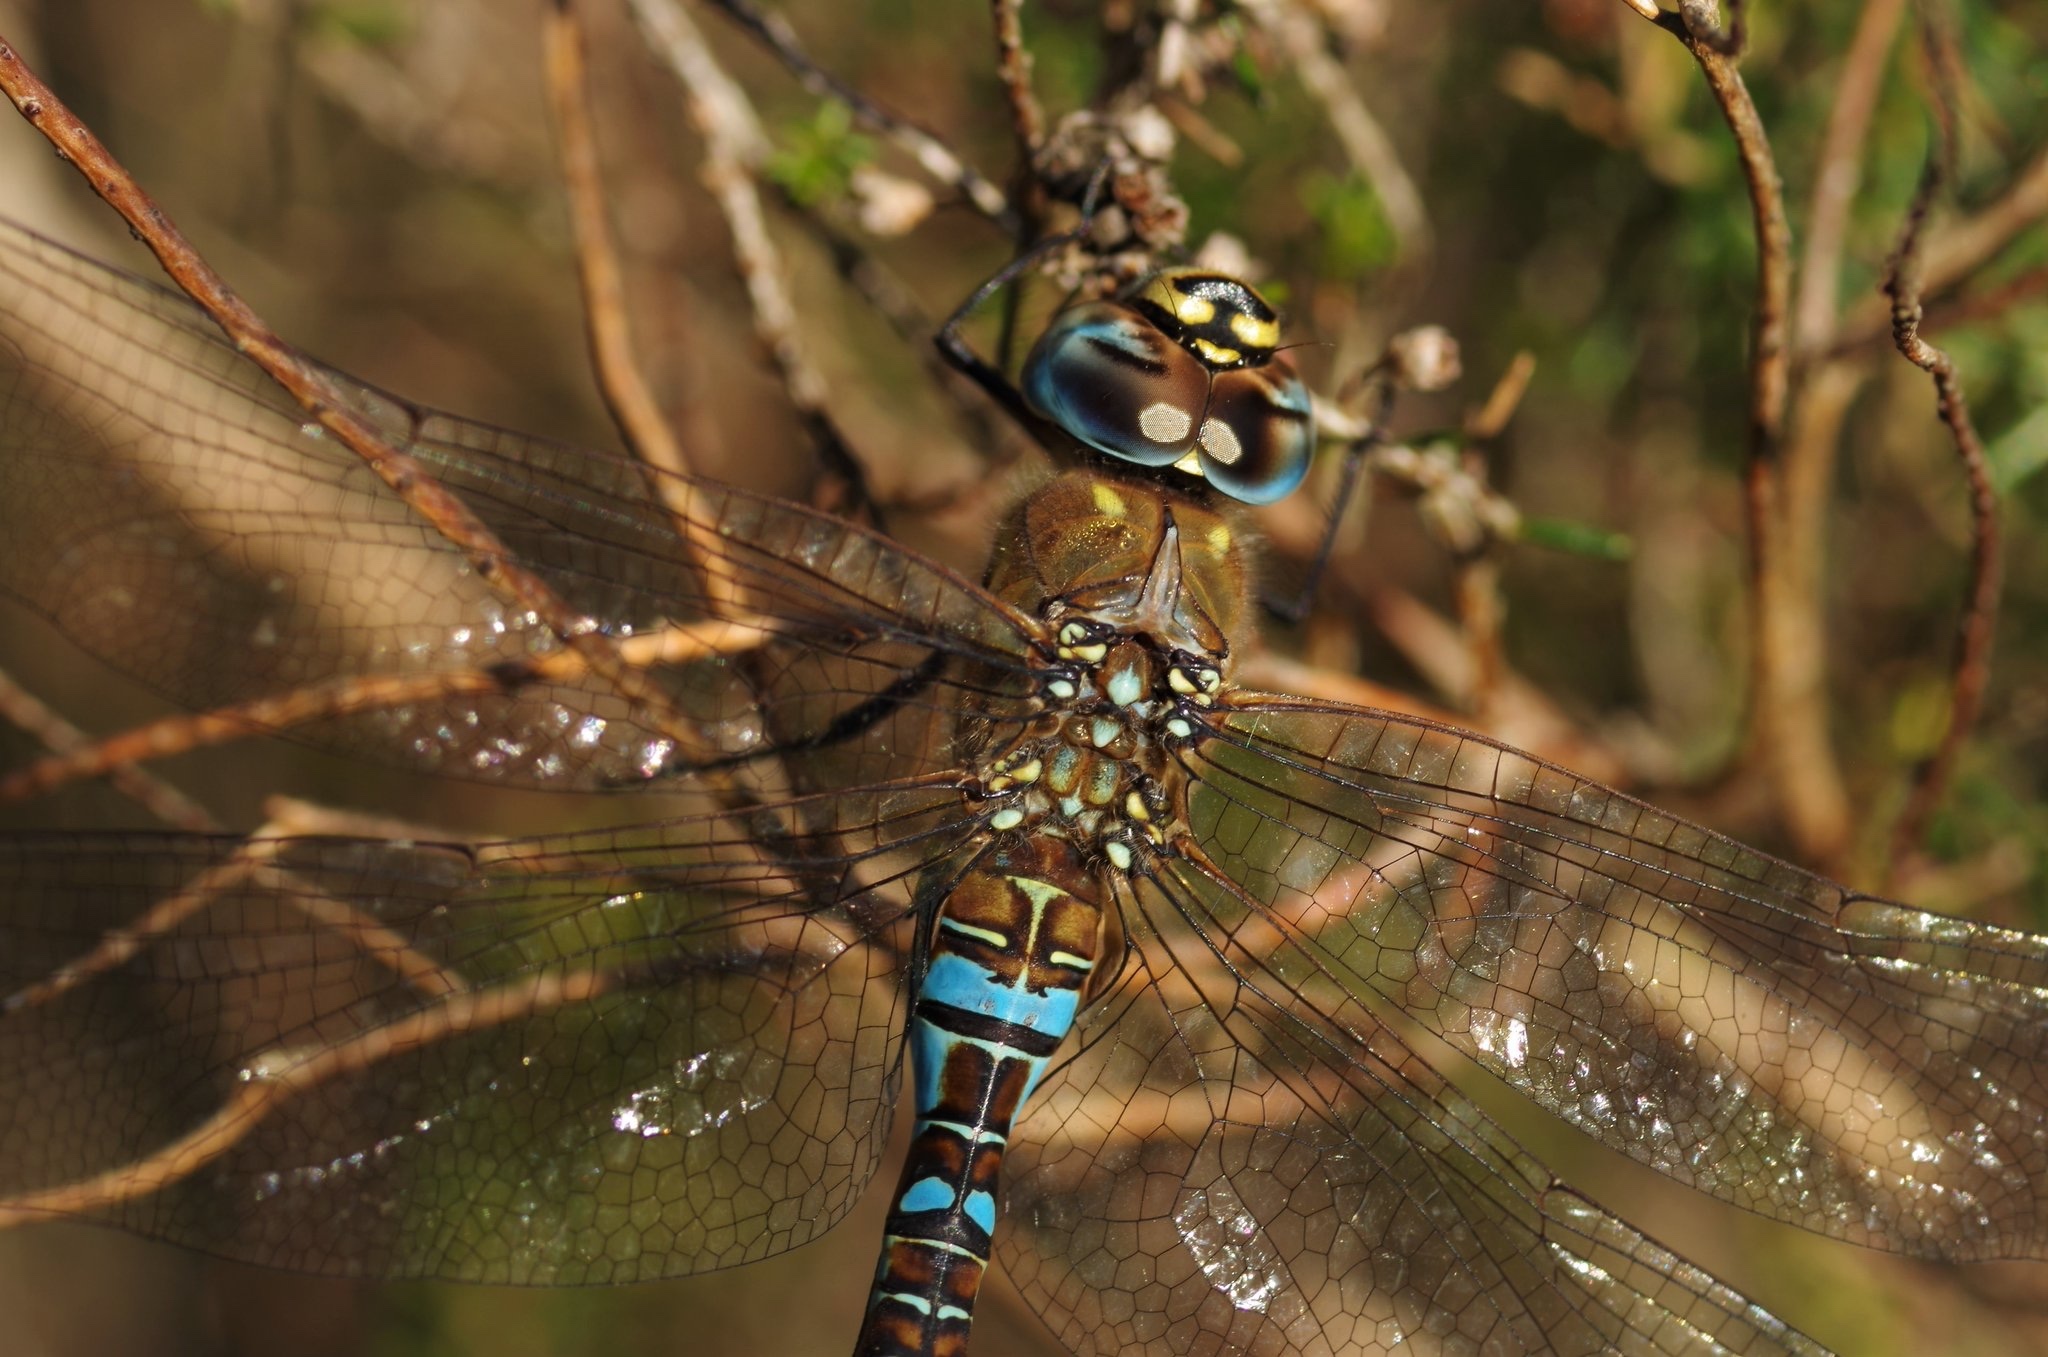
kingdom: Animalia
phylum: Arthropoda
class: Insecta
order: Odonata
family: Aeshnidae
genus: Aeshna
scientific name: Aeshna mixta
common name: Migrant hawker
